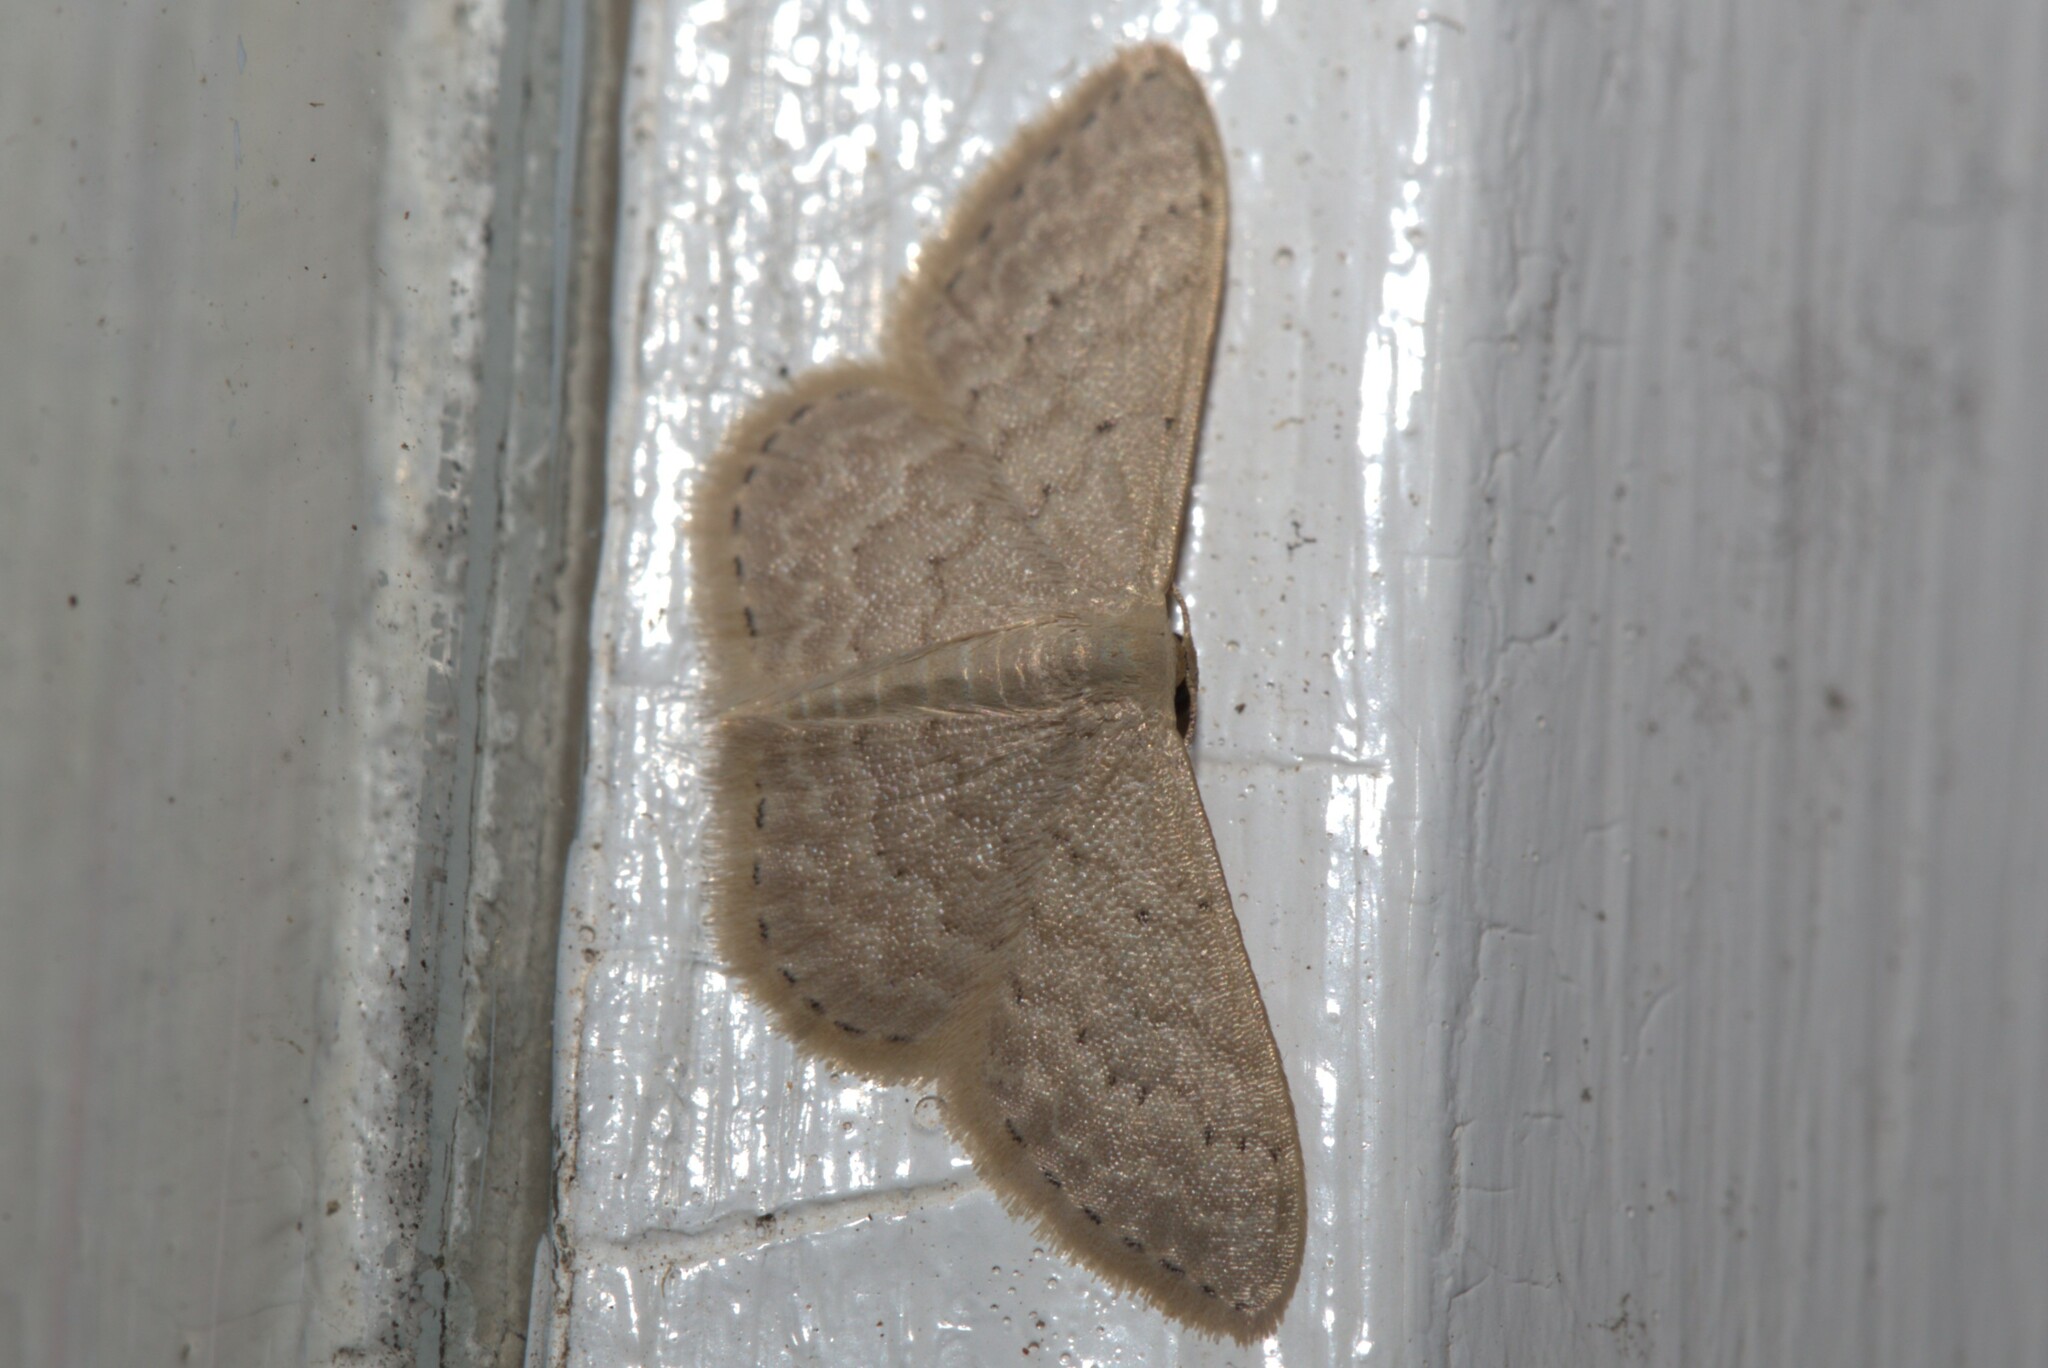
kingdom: Animalia
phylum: Arthropoda
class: Insecta
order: Lepidoptera
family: Geometridae
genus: Idaea
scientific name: Idaea eretmopus
